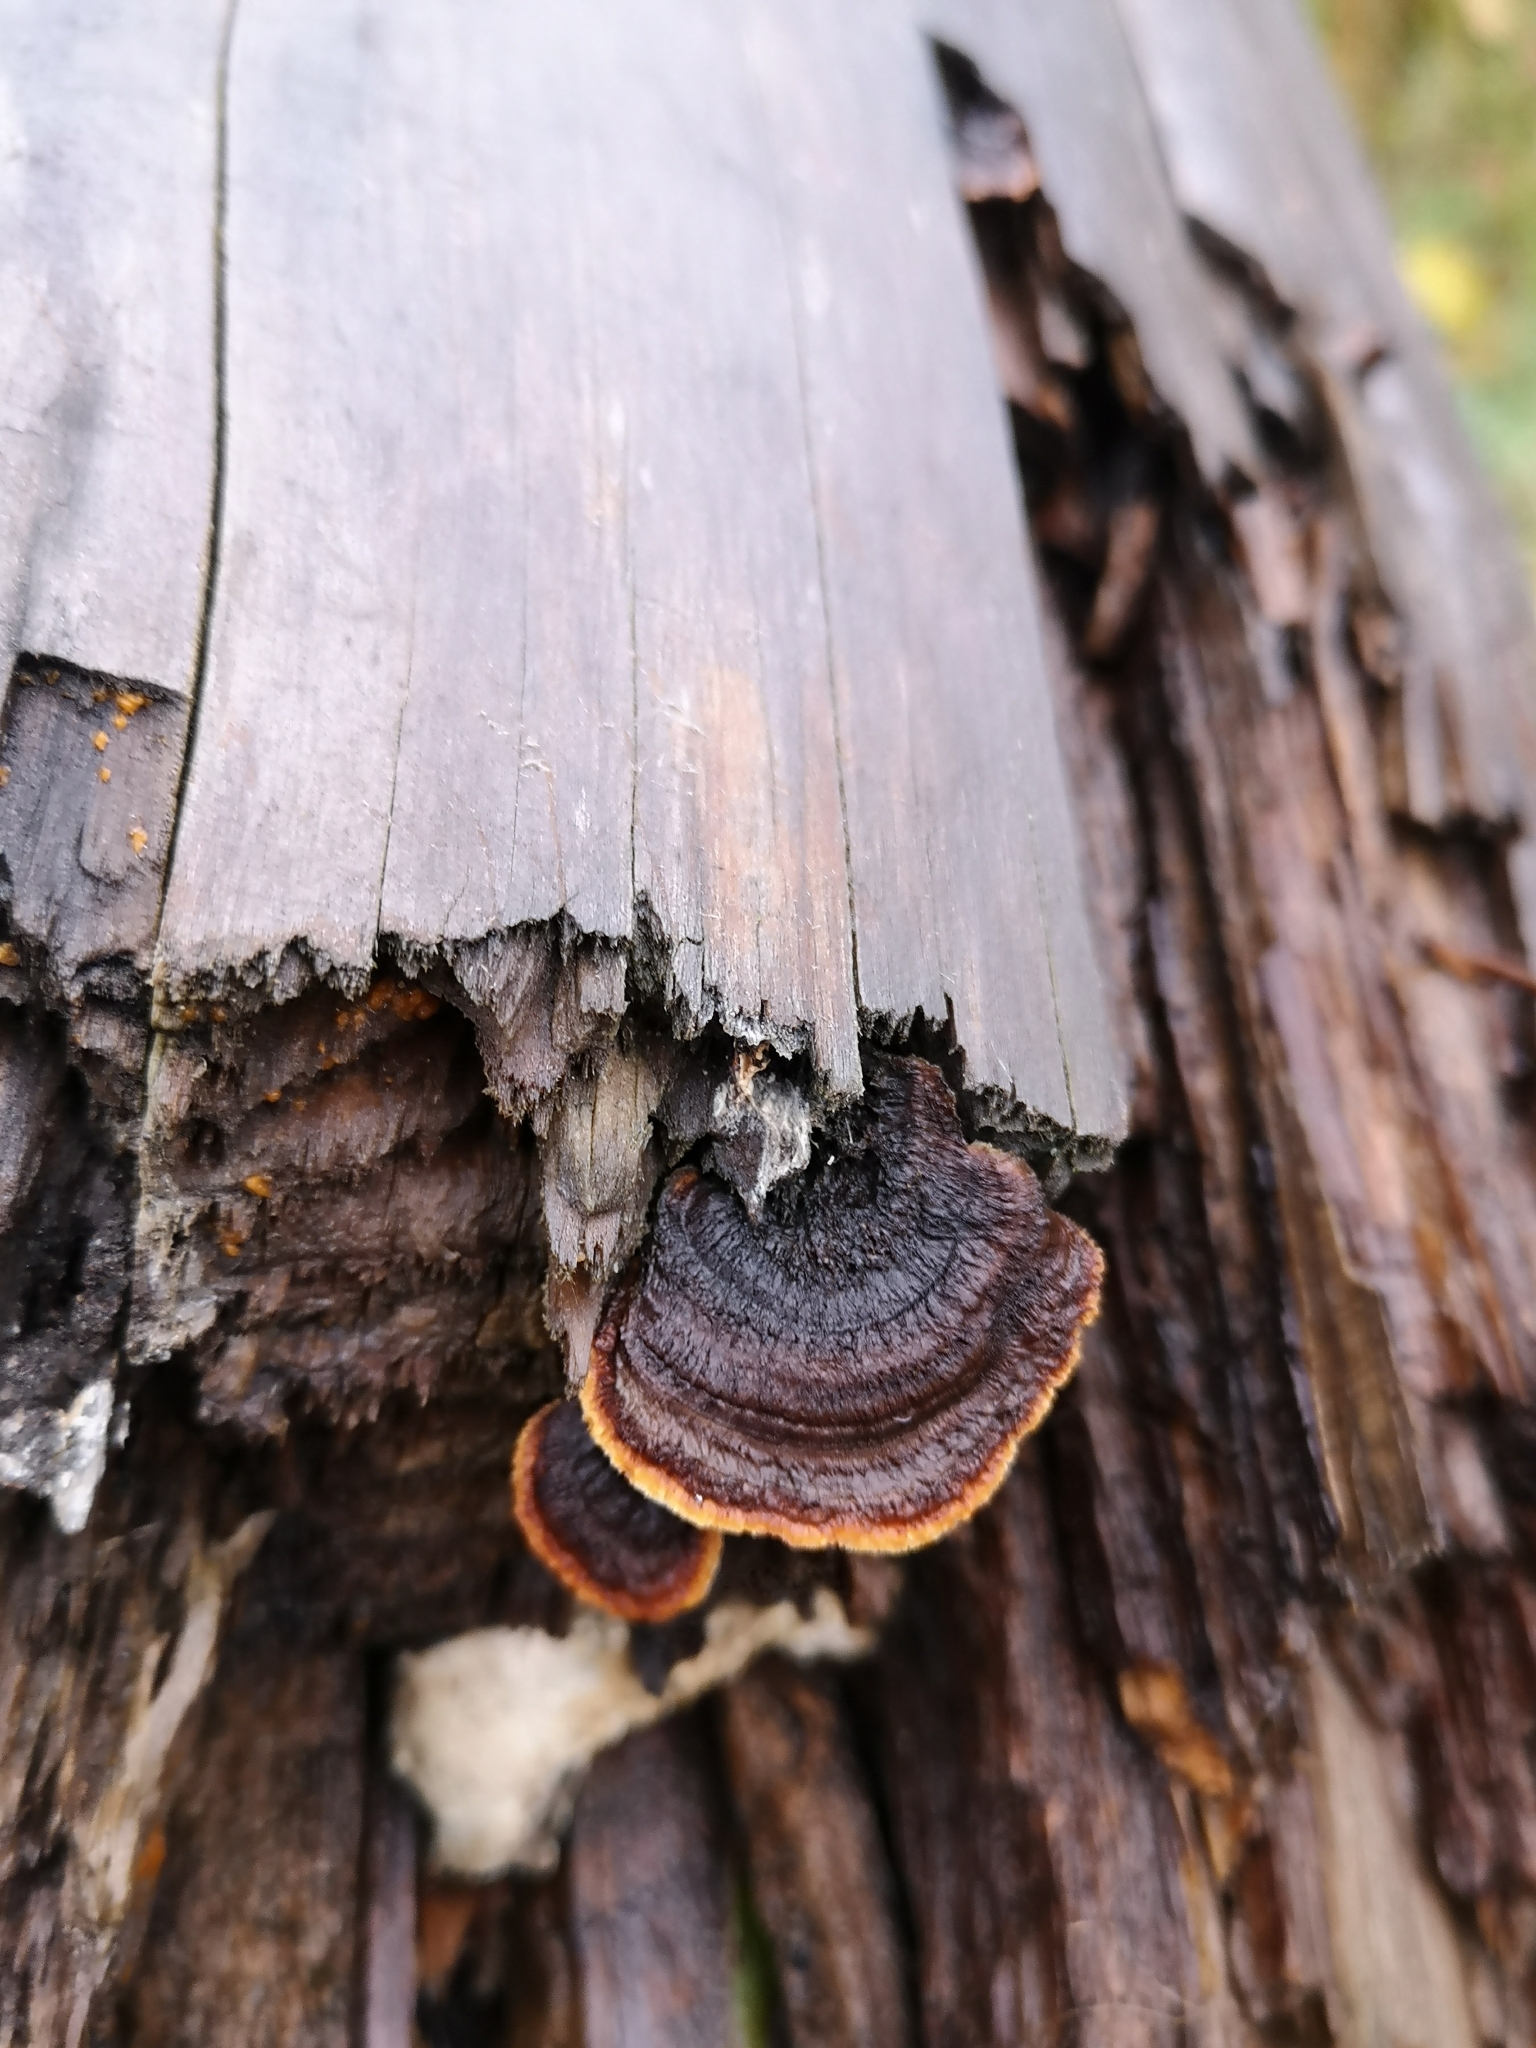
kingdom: Fungi
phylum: Basidiomycota
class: Agaricomycetes
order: Gloeophyllales
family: Gloeophyllaceae
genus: Gloeophyllum
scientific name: Gloeophyllum sepiarium
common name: Conifer mazegill
